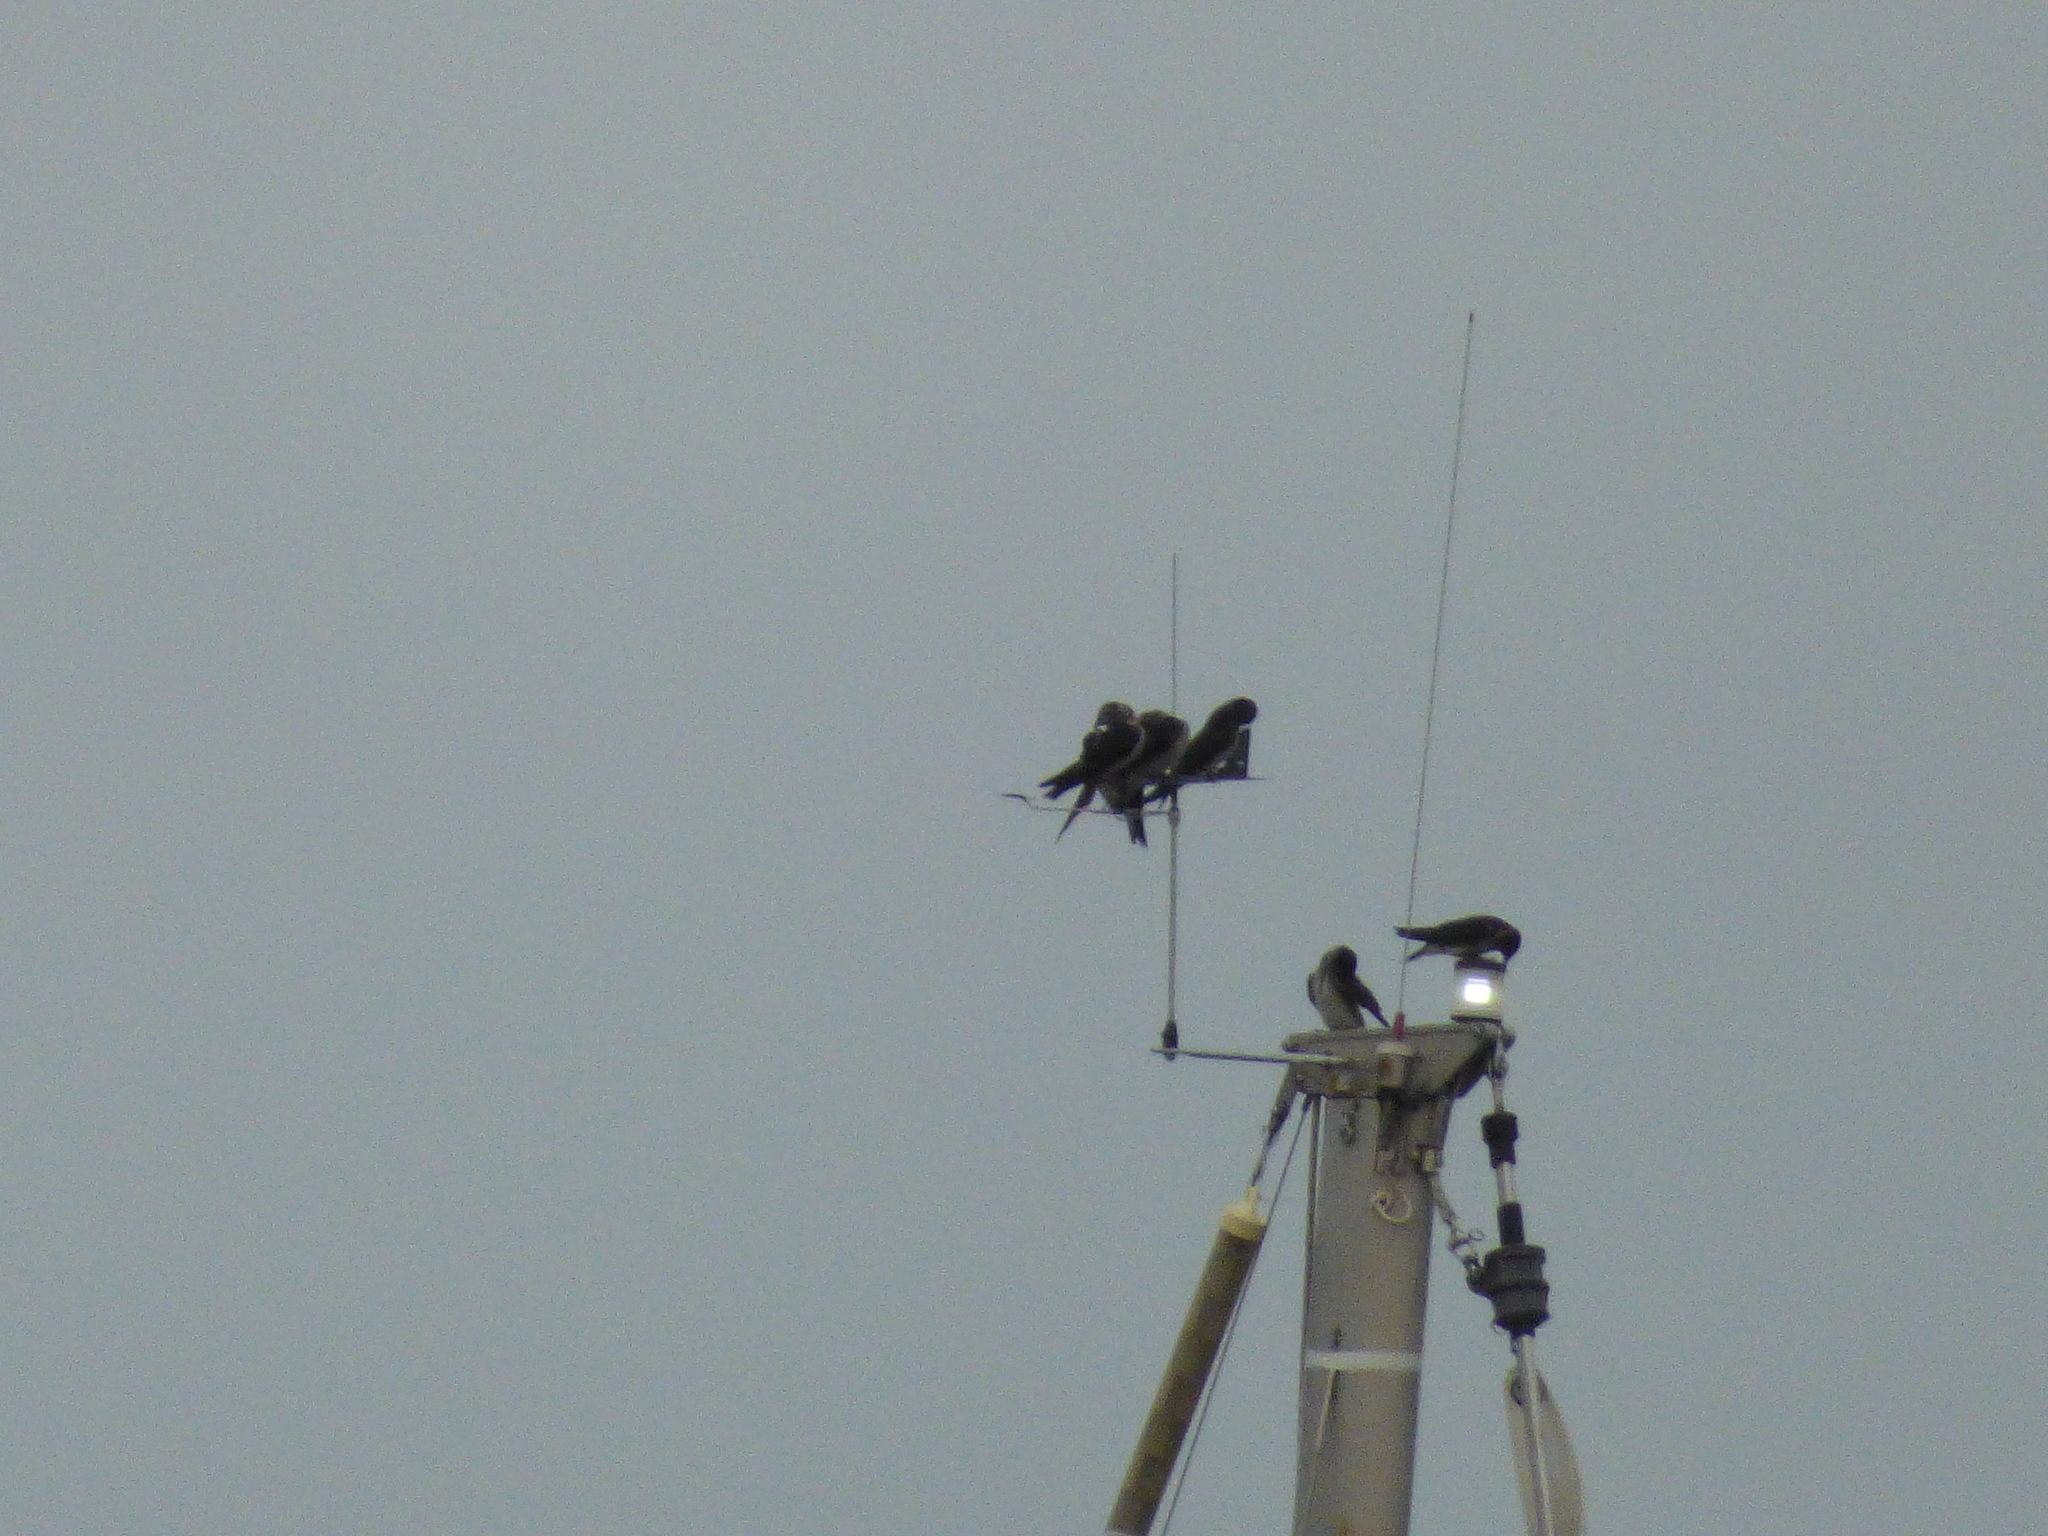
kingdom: Animalia
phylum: Chordata
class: Aves
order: Passeriformes
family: Hirundinidae
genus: Progne
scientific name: Progne subis
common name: Purple martin
